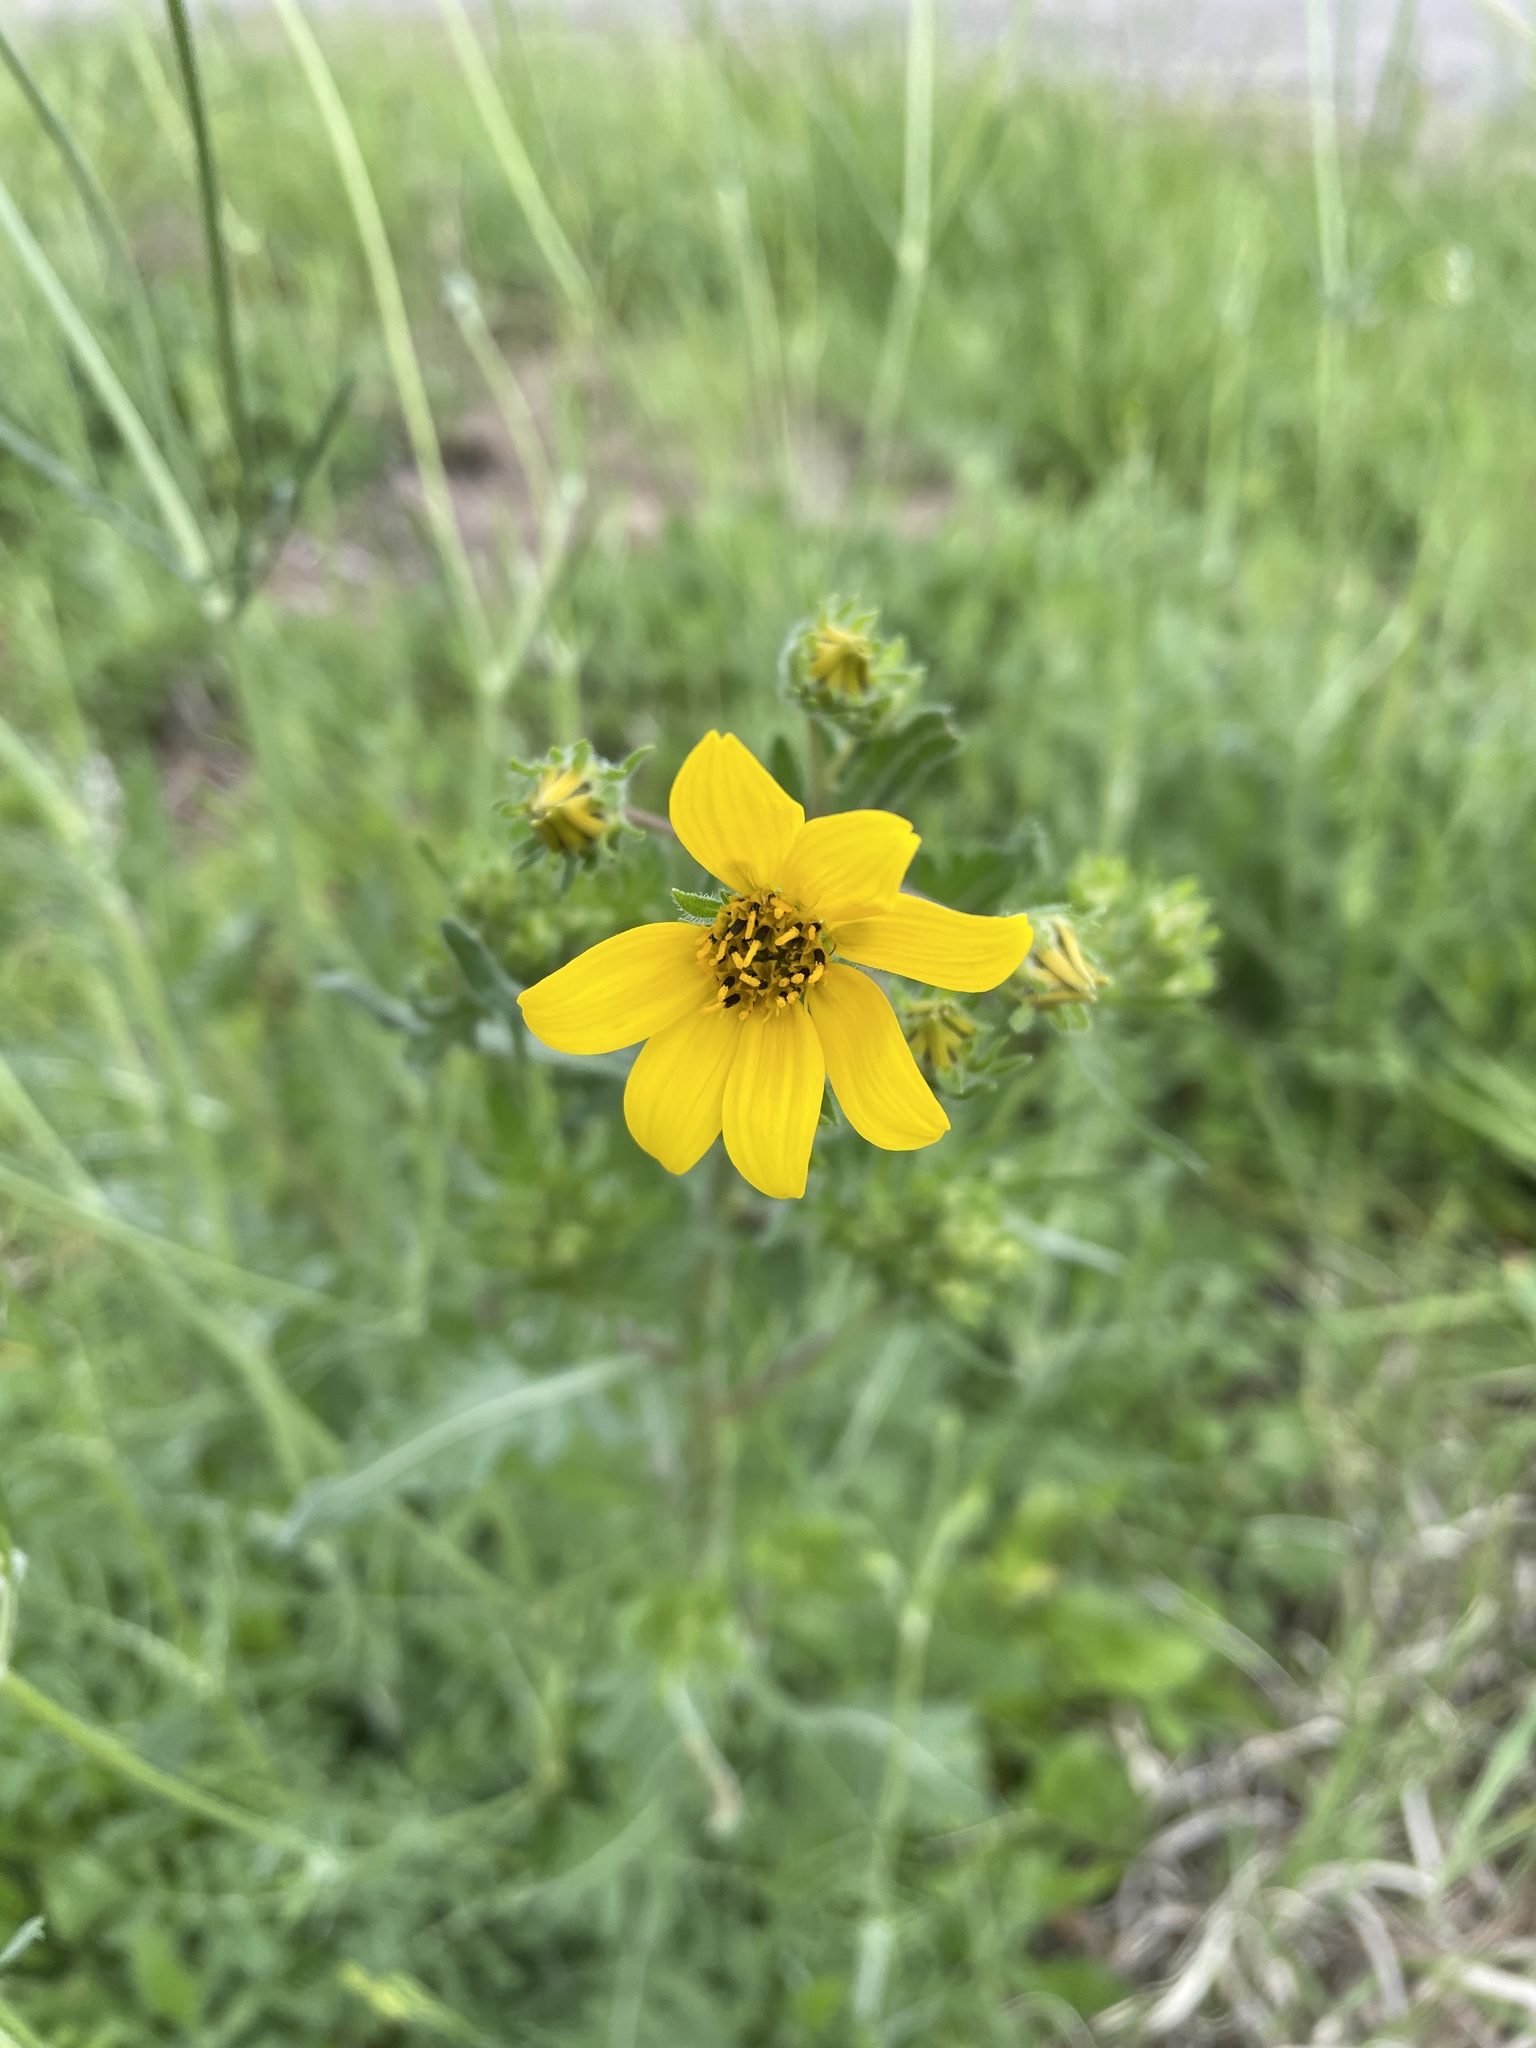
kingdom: Plantae
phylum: Tracheophyta
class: Magnoliopsida
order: Asterales
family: Asteraceae
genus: Engelmannia
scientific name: Engelmannia peristenia
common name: Engelmann's daisy
